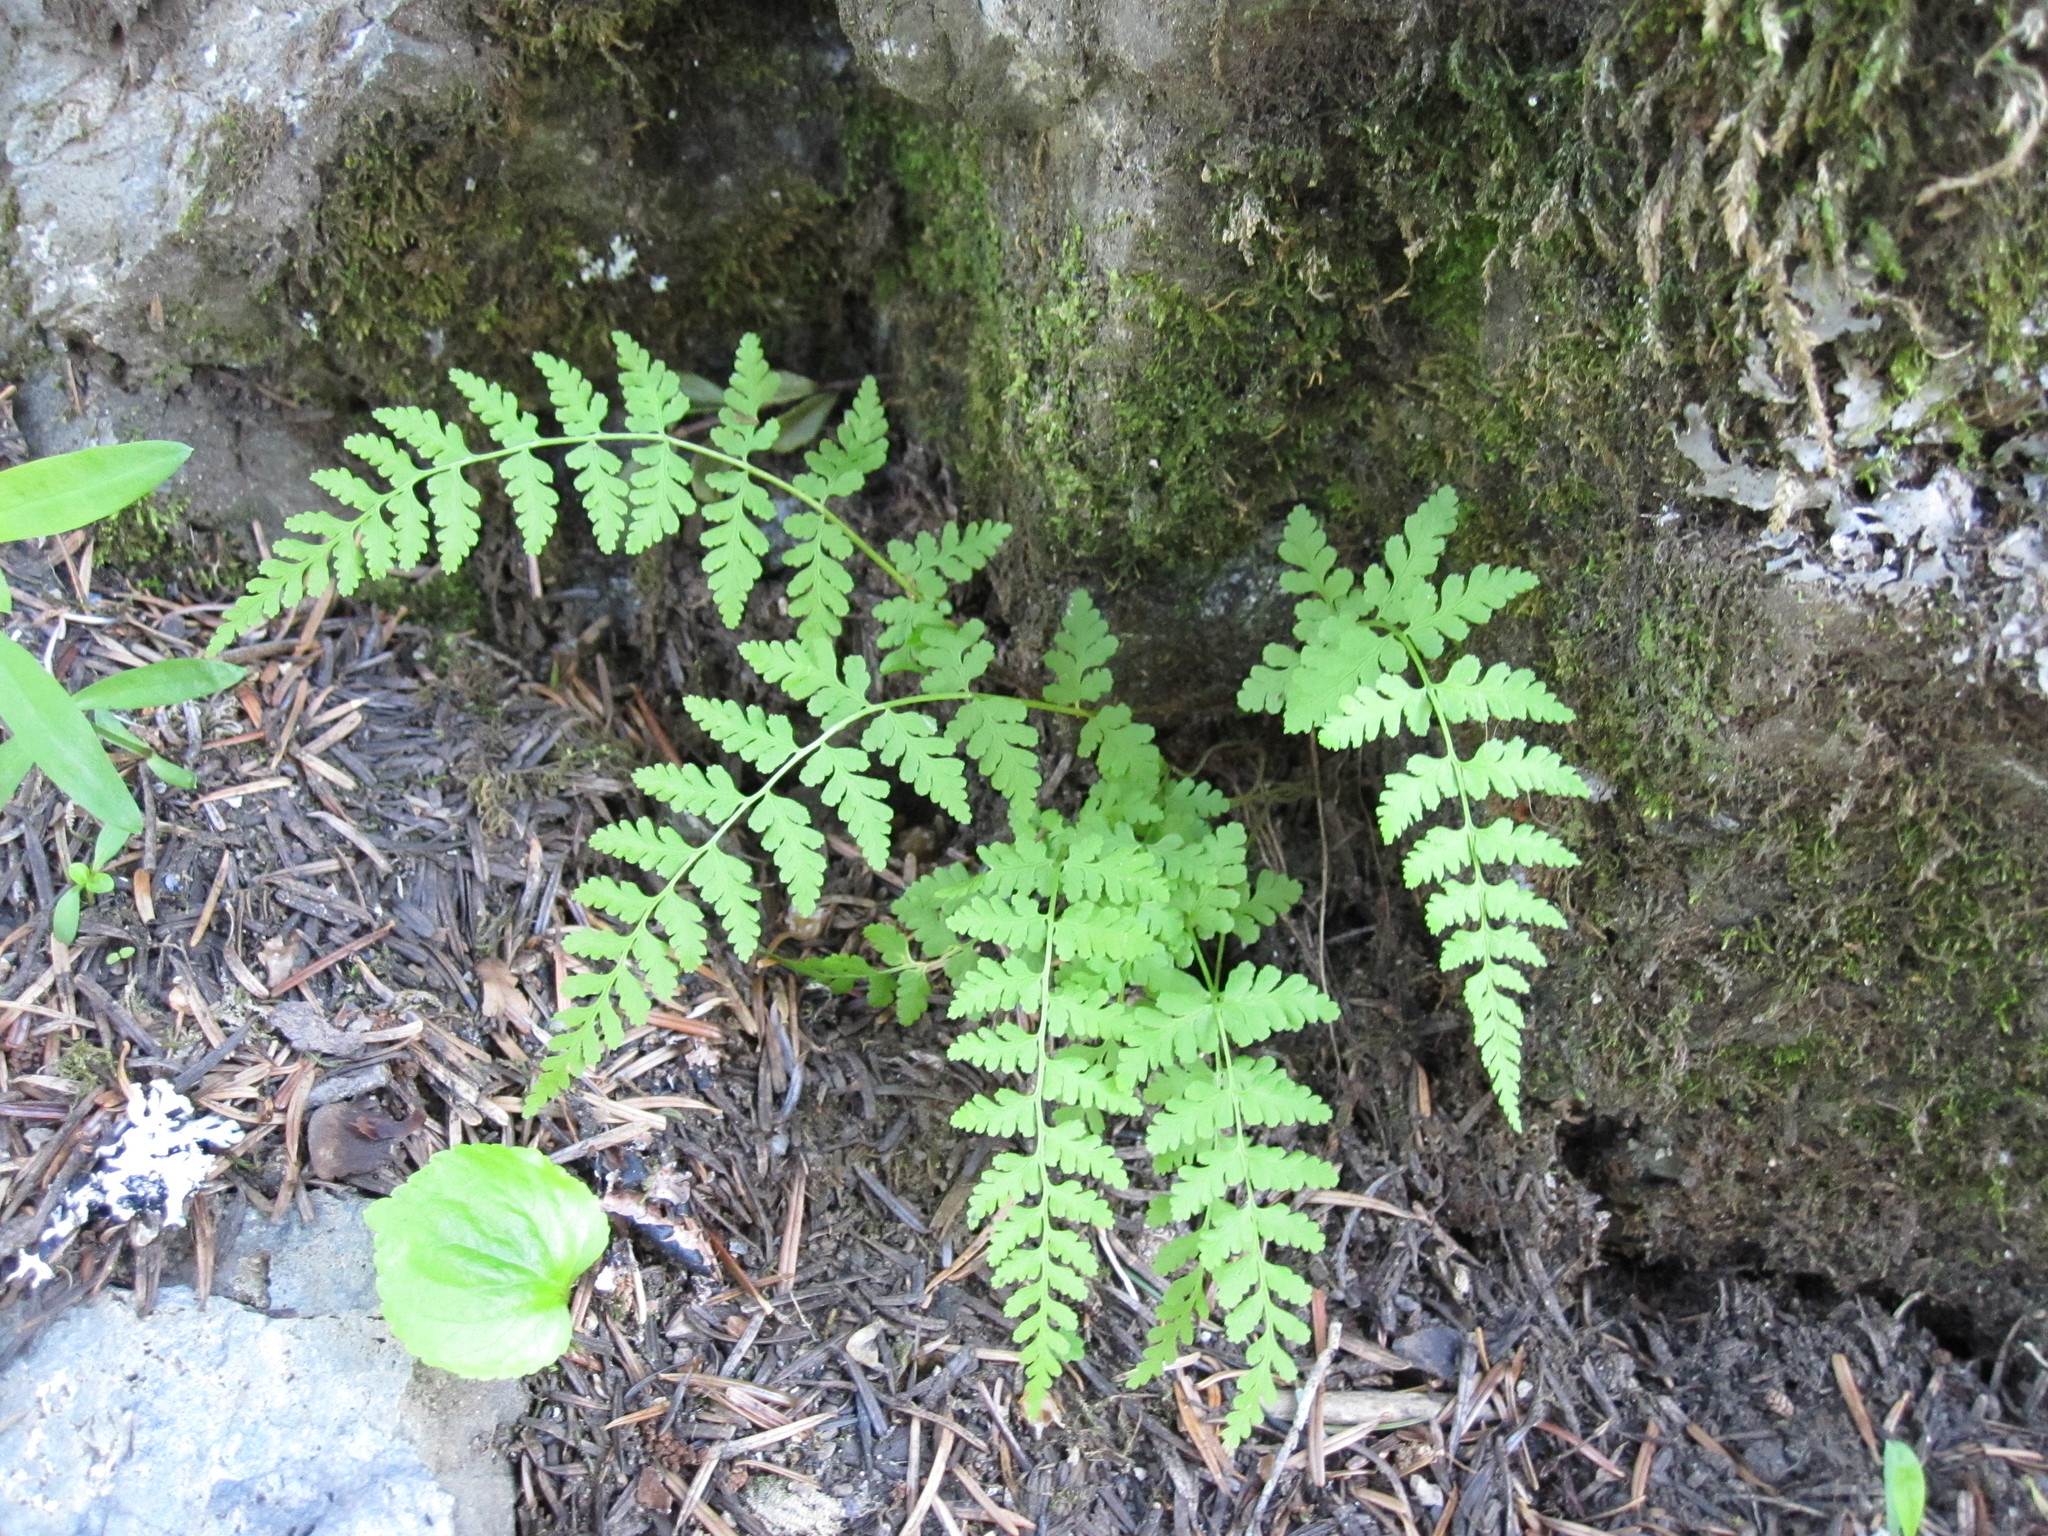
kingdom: Plantae
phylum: Tracheophyta
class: Polypodiopsida
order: Polypodiales
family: Cystopteridaceae
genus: Cystopteris
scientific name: Cystopteris fragilis
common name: Brittle bladder fern
